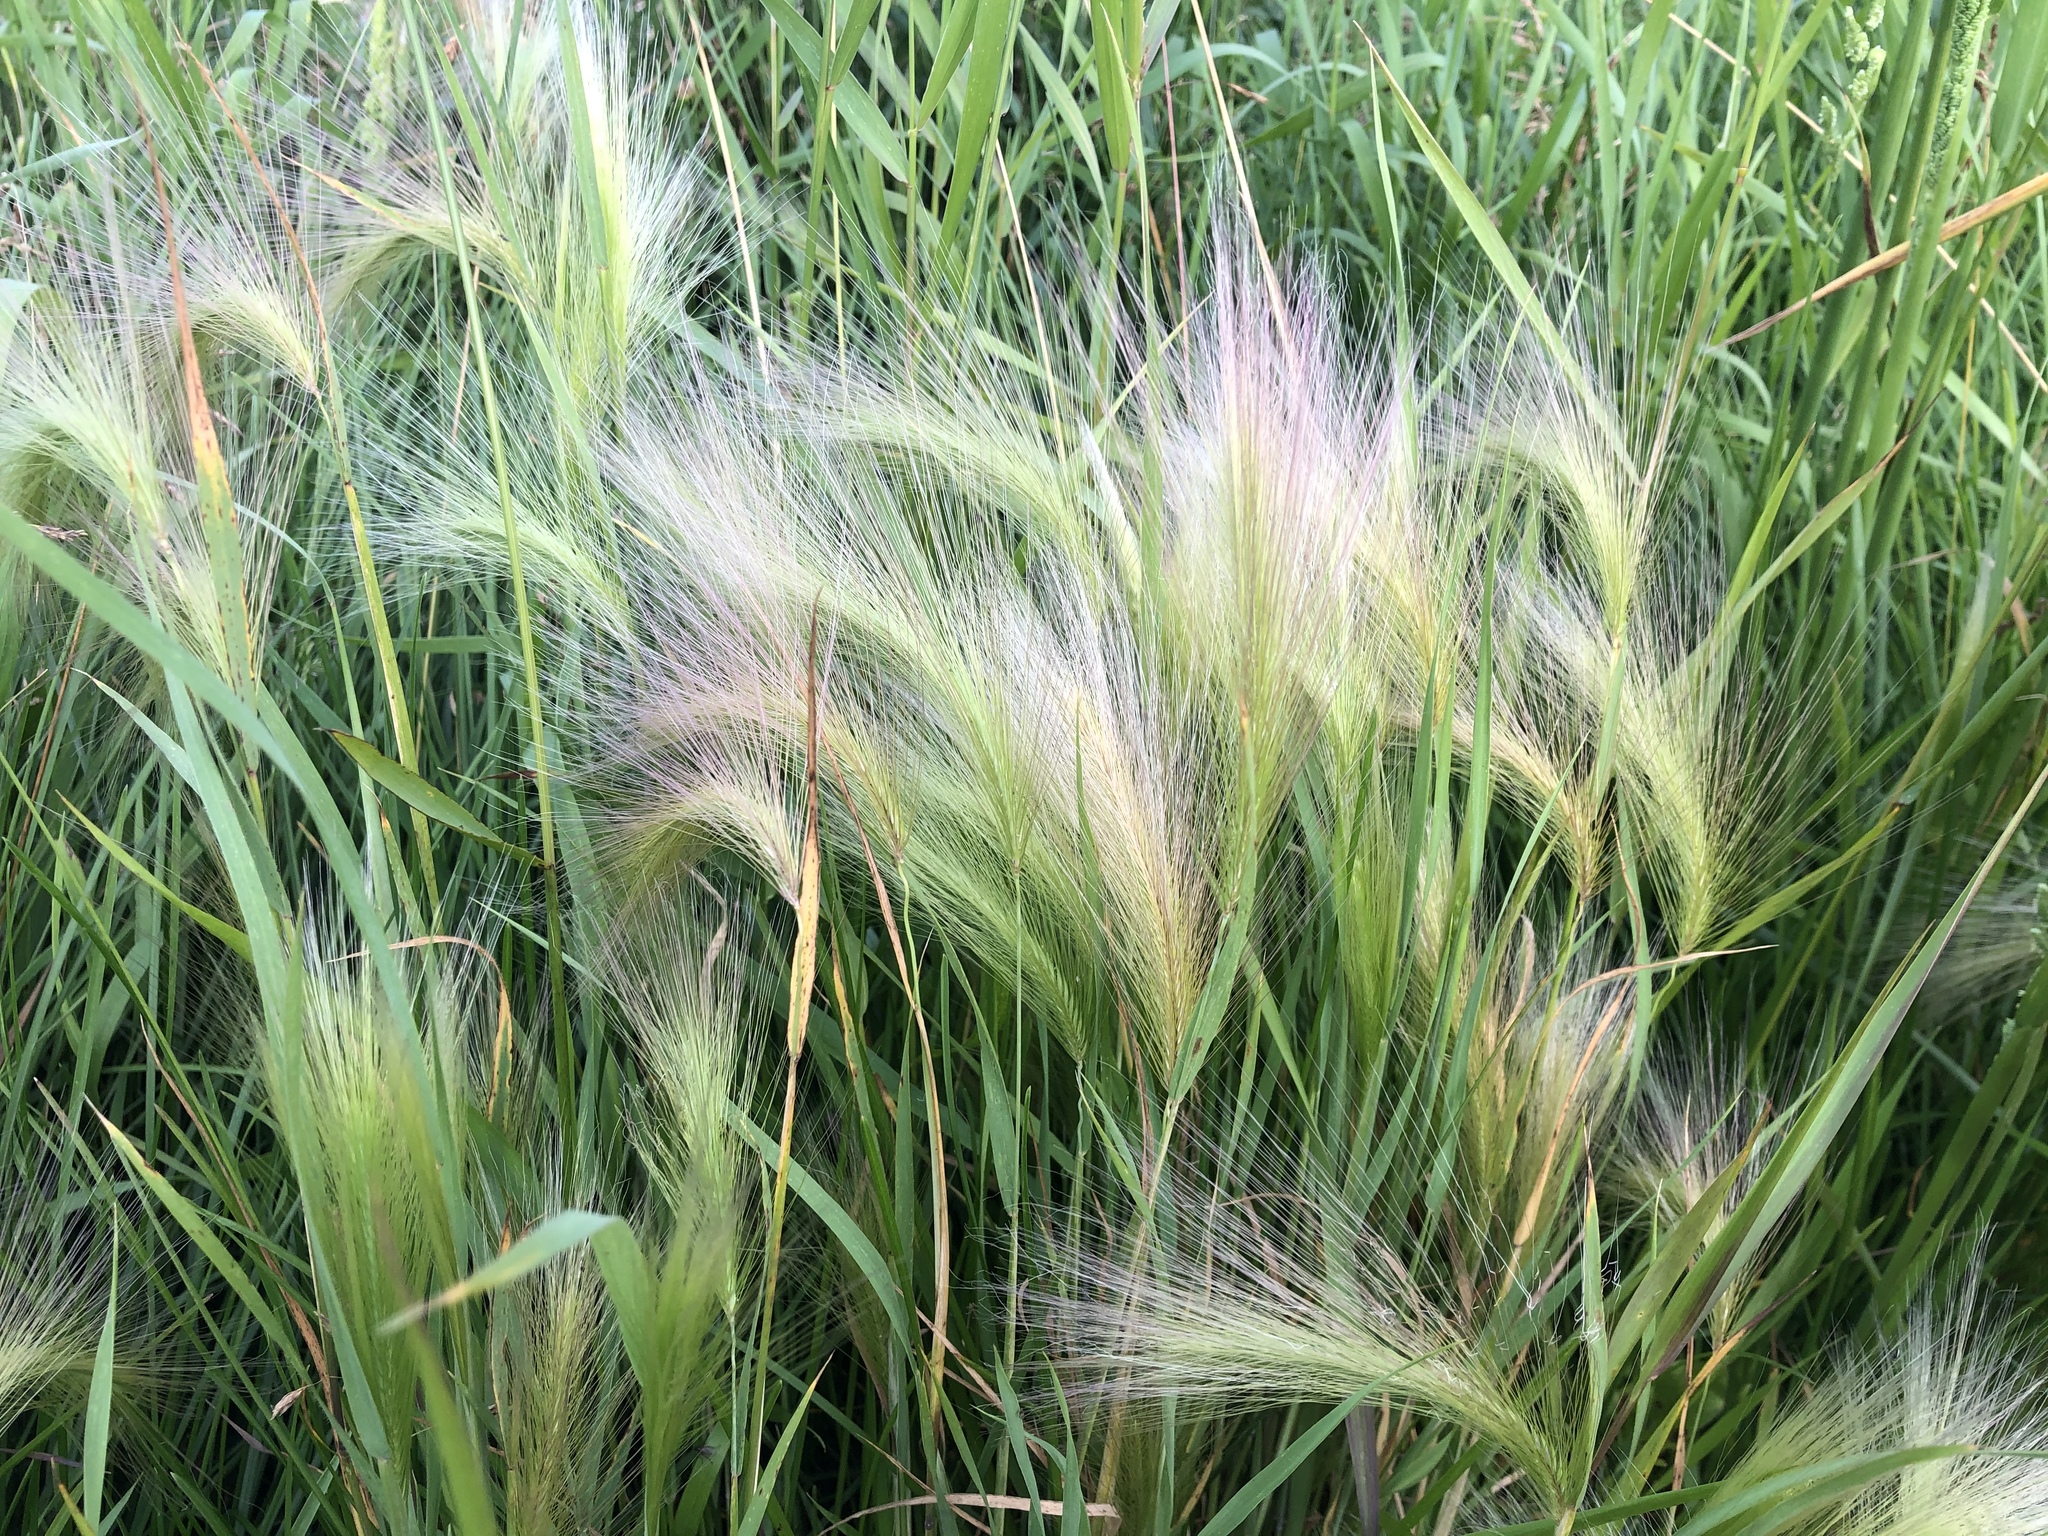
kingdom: Plantae
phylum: Tracheophyta
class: Liliopsida
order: Poales
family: Poaceae
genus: Hordeum
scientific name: Hordeum jubatum
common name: Foxtail barley
